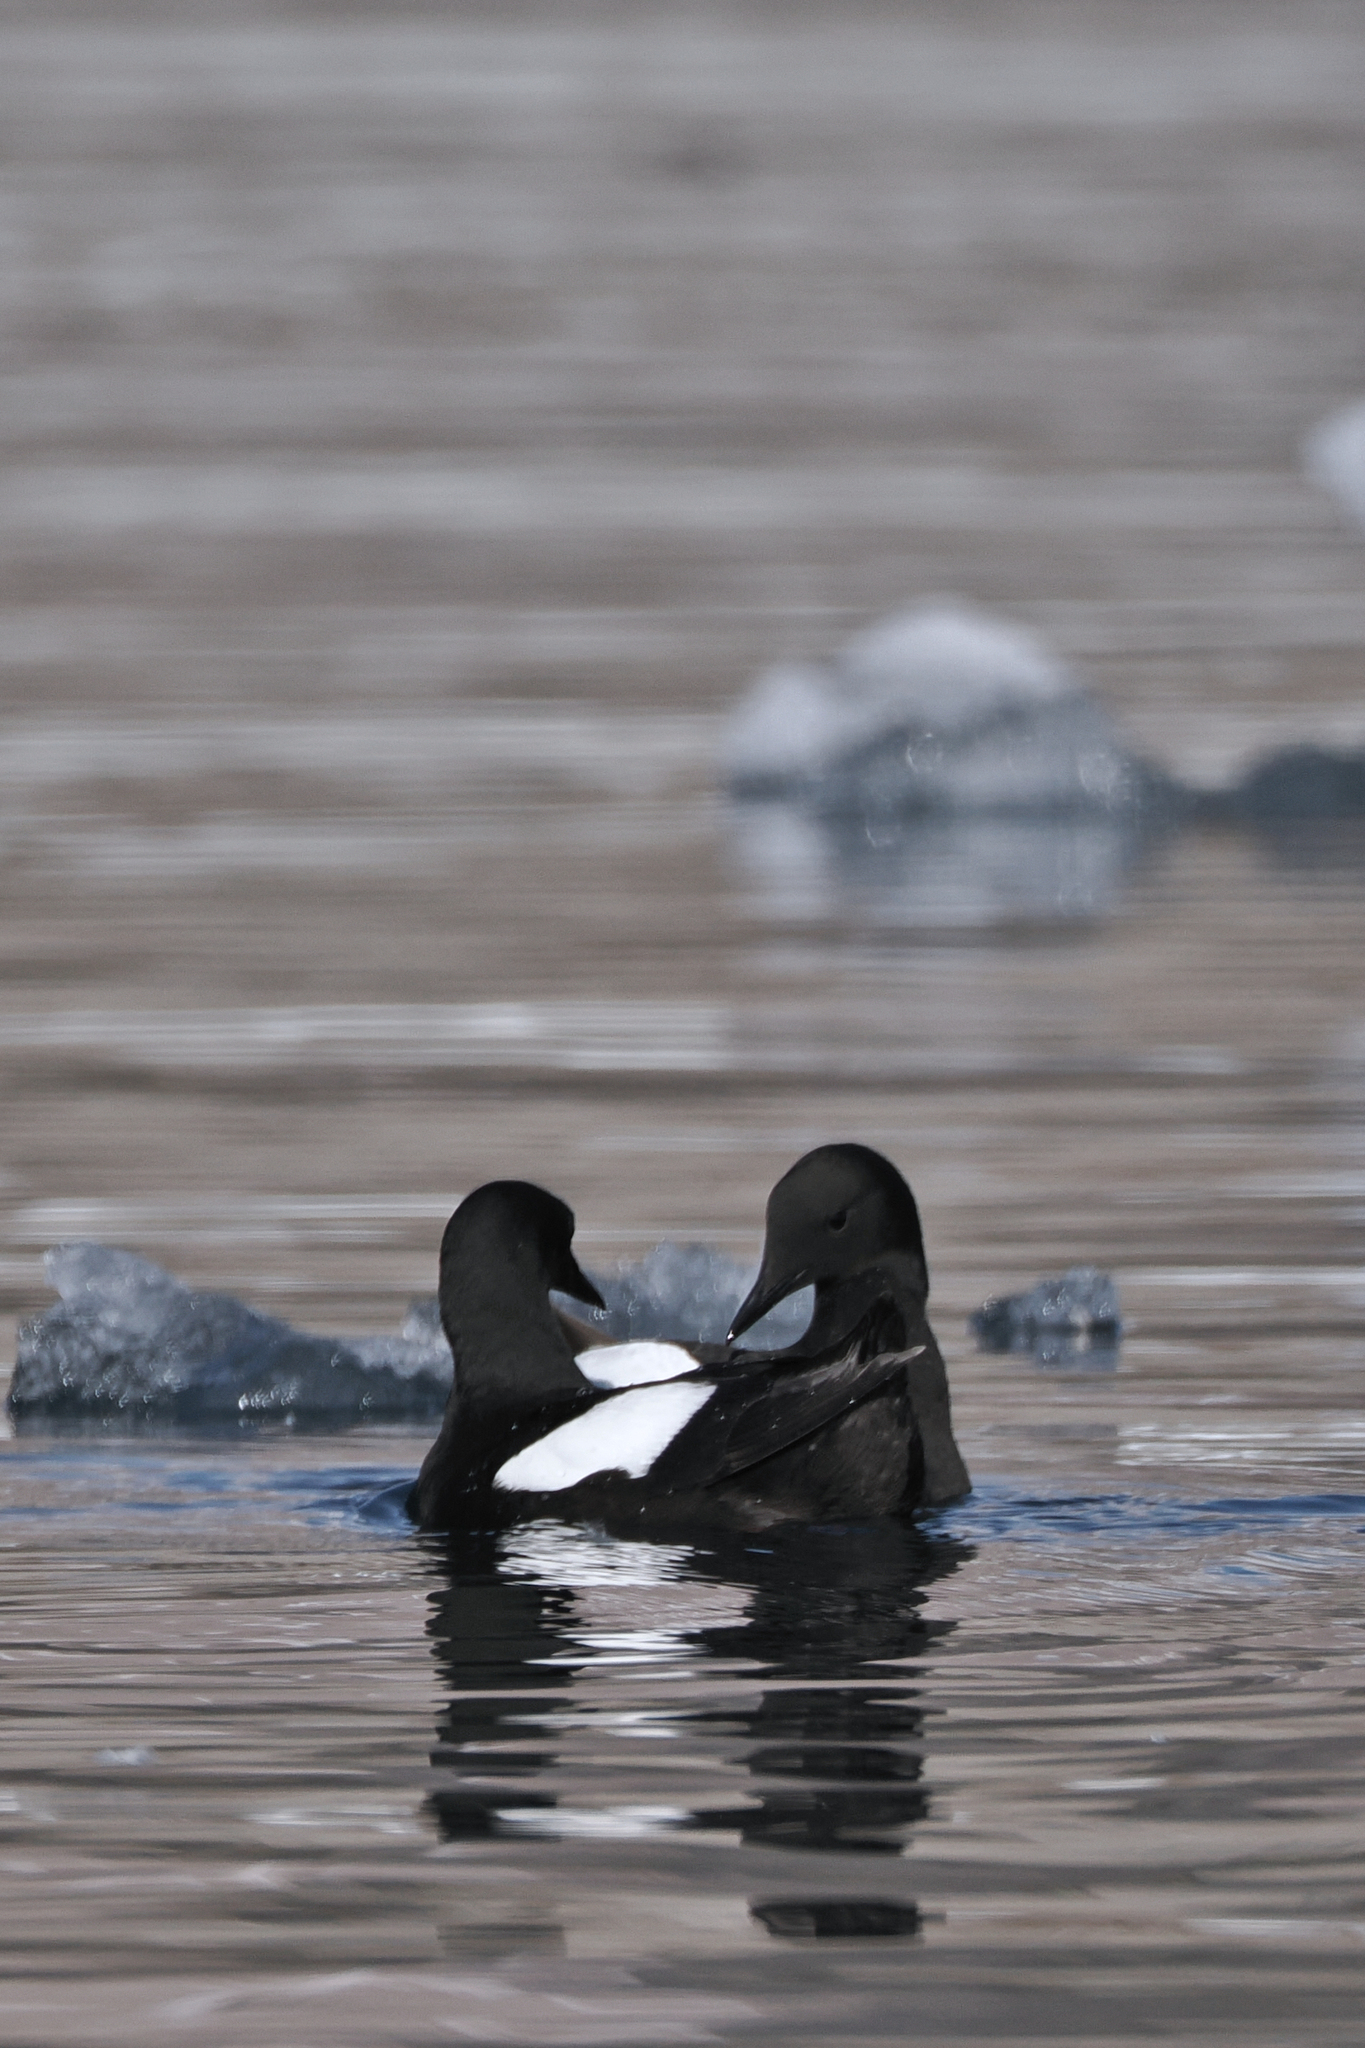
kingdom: Animalia
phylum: Chordata
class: Aves
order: Charadriiformes
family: Alcidae
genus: Cepphus
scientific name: Cepphus grylle
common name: Black guillemot
